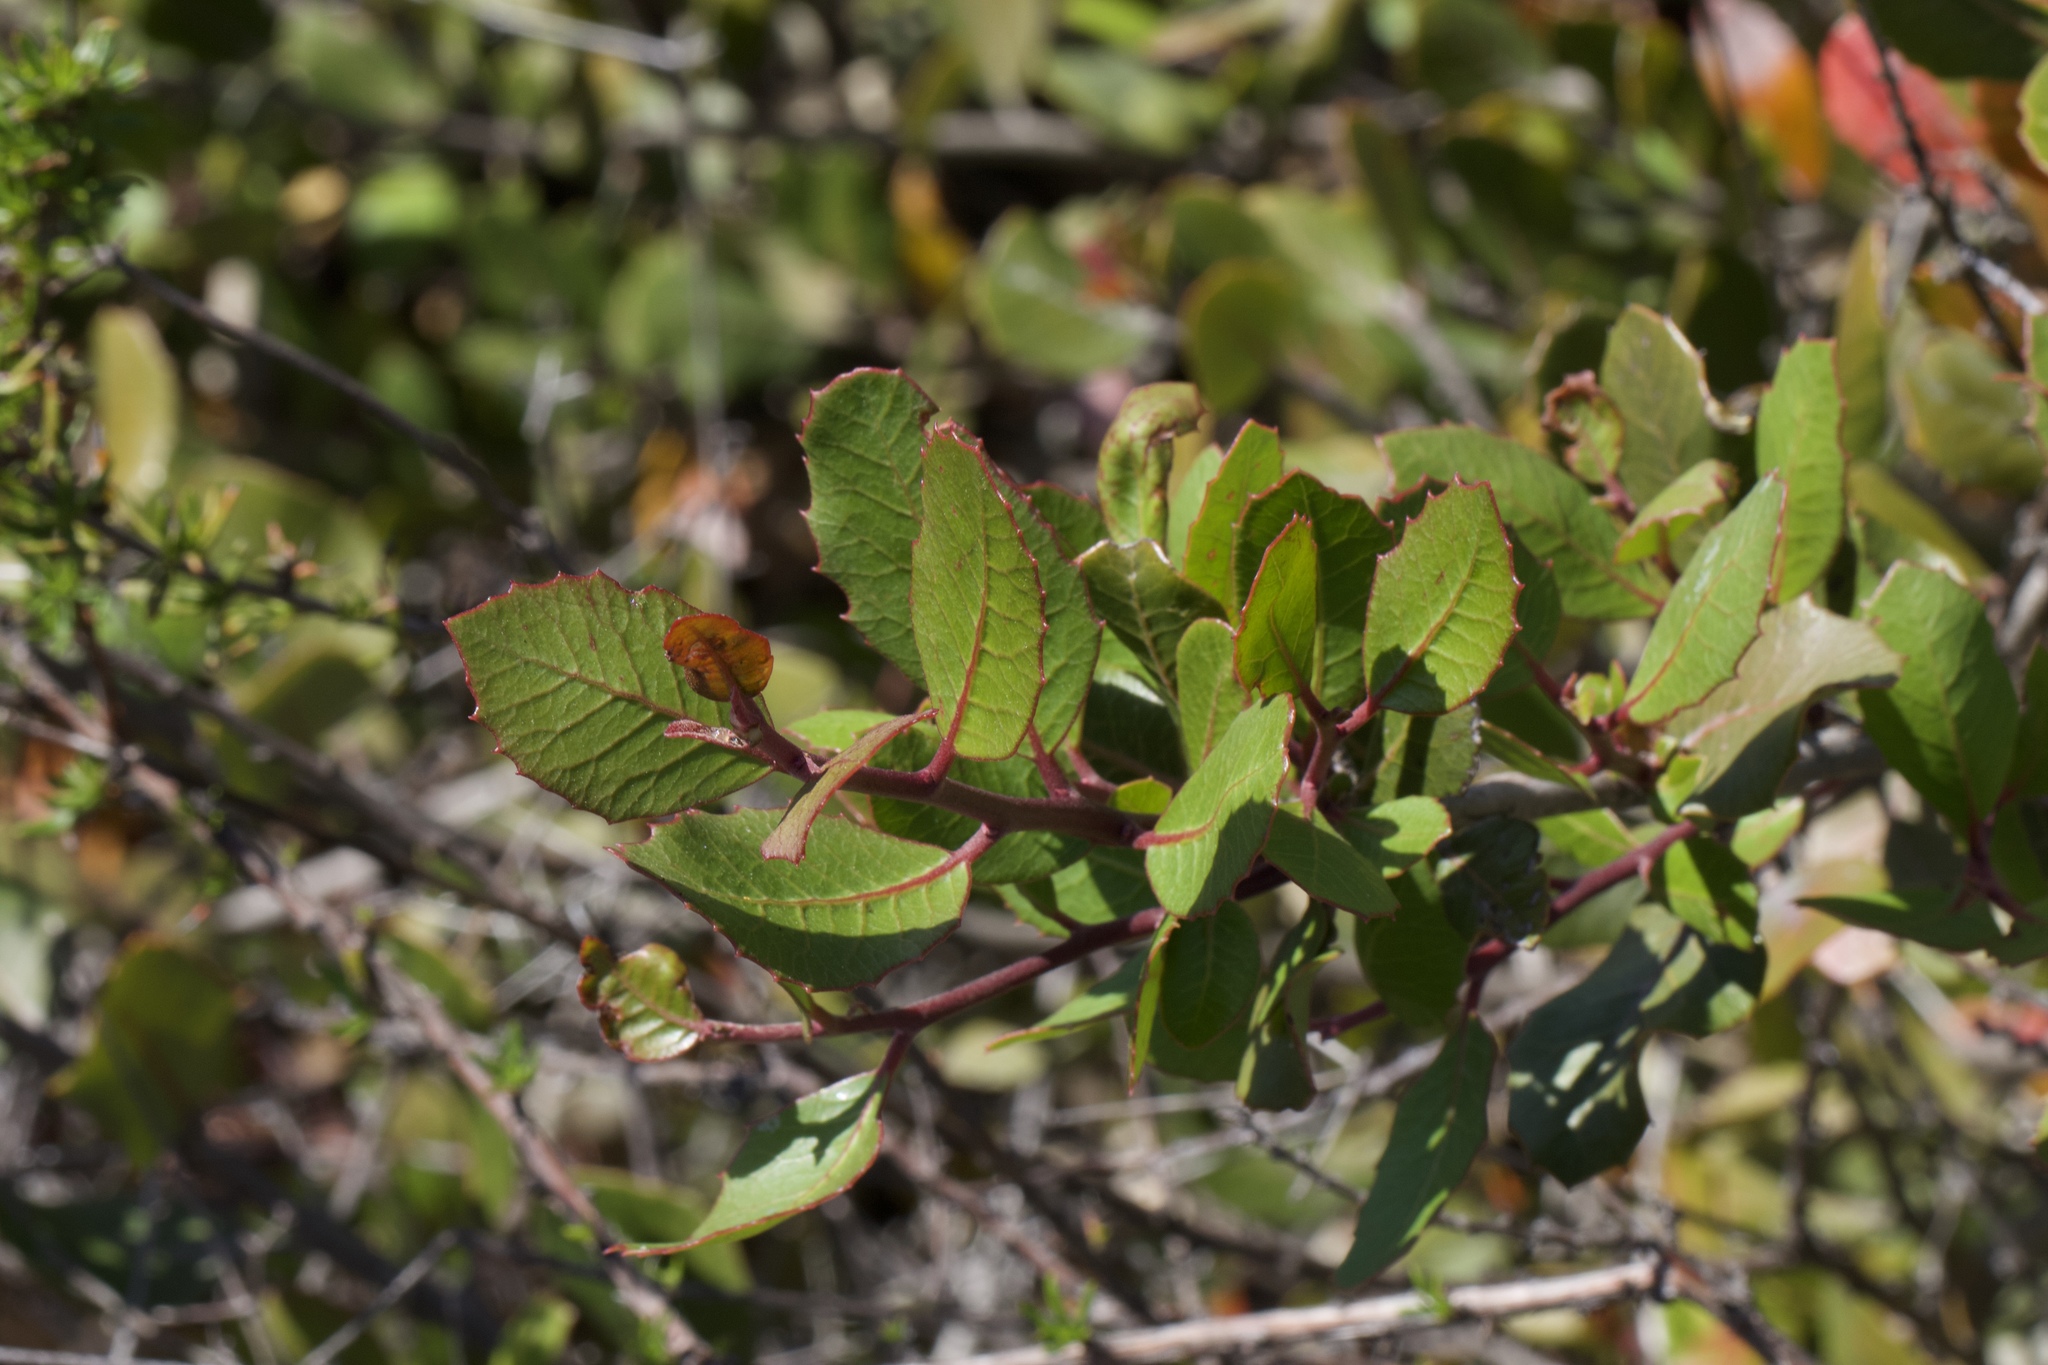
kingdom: Plantae
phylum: Tracheophyta
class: Magnoliopsida
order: Sapindales
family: Anacardiaceae
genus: Rhus
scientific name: Rhus integrifolia
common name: Lemonade sumac
